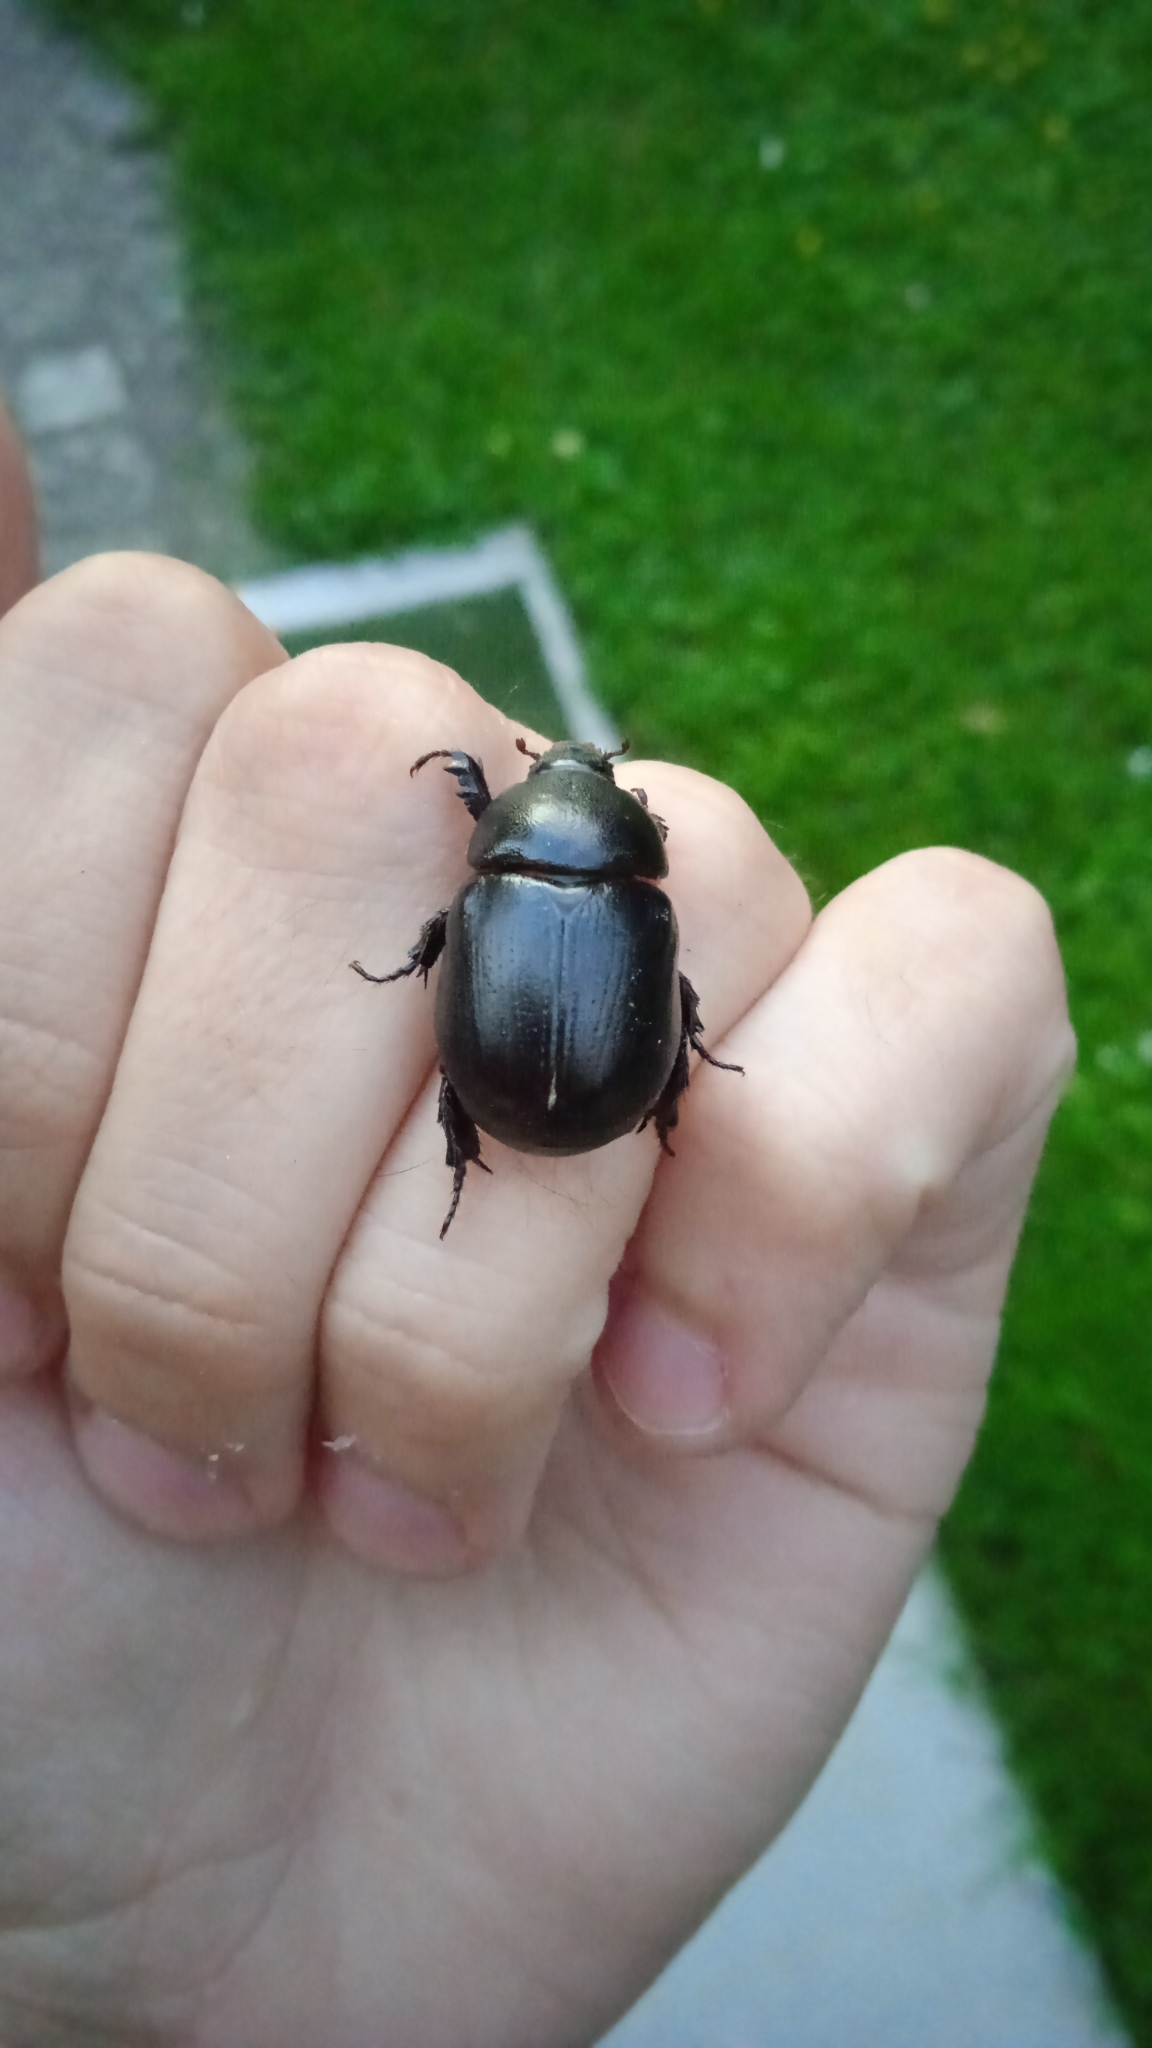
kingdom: Animalia
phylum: Arthropoda
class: Insecta
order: Coleoptera
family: Scarabaeidae
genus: Pentodon
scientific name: Pentodon idiota
